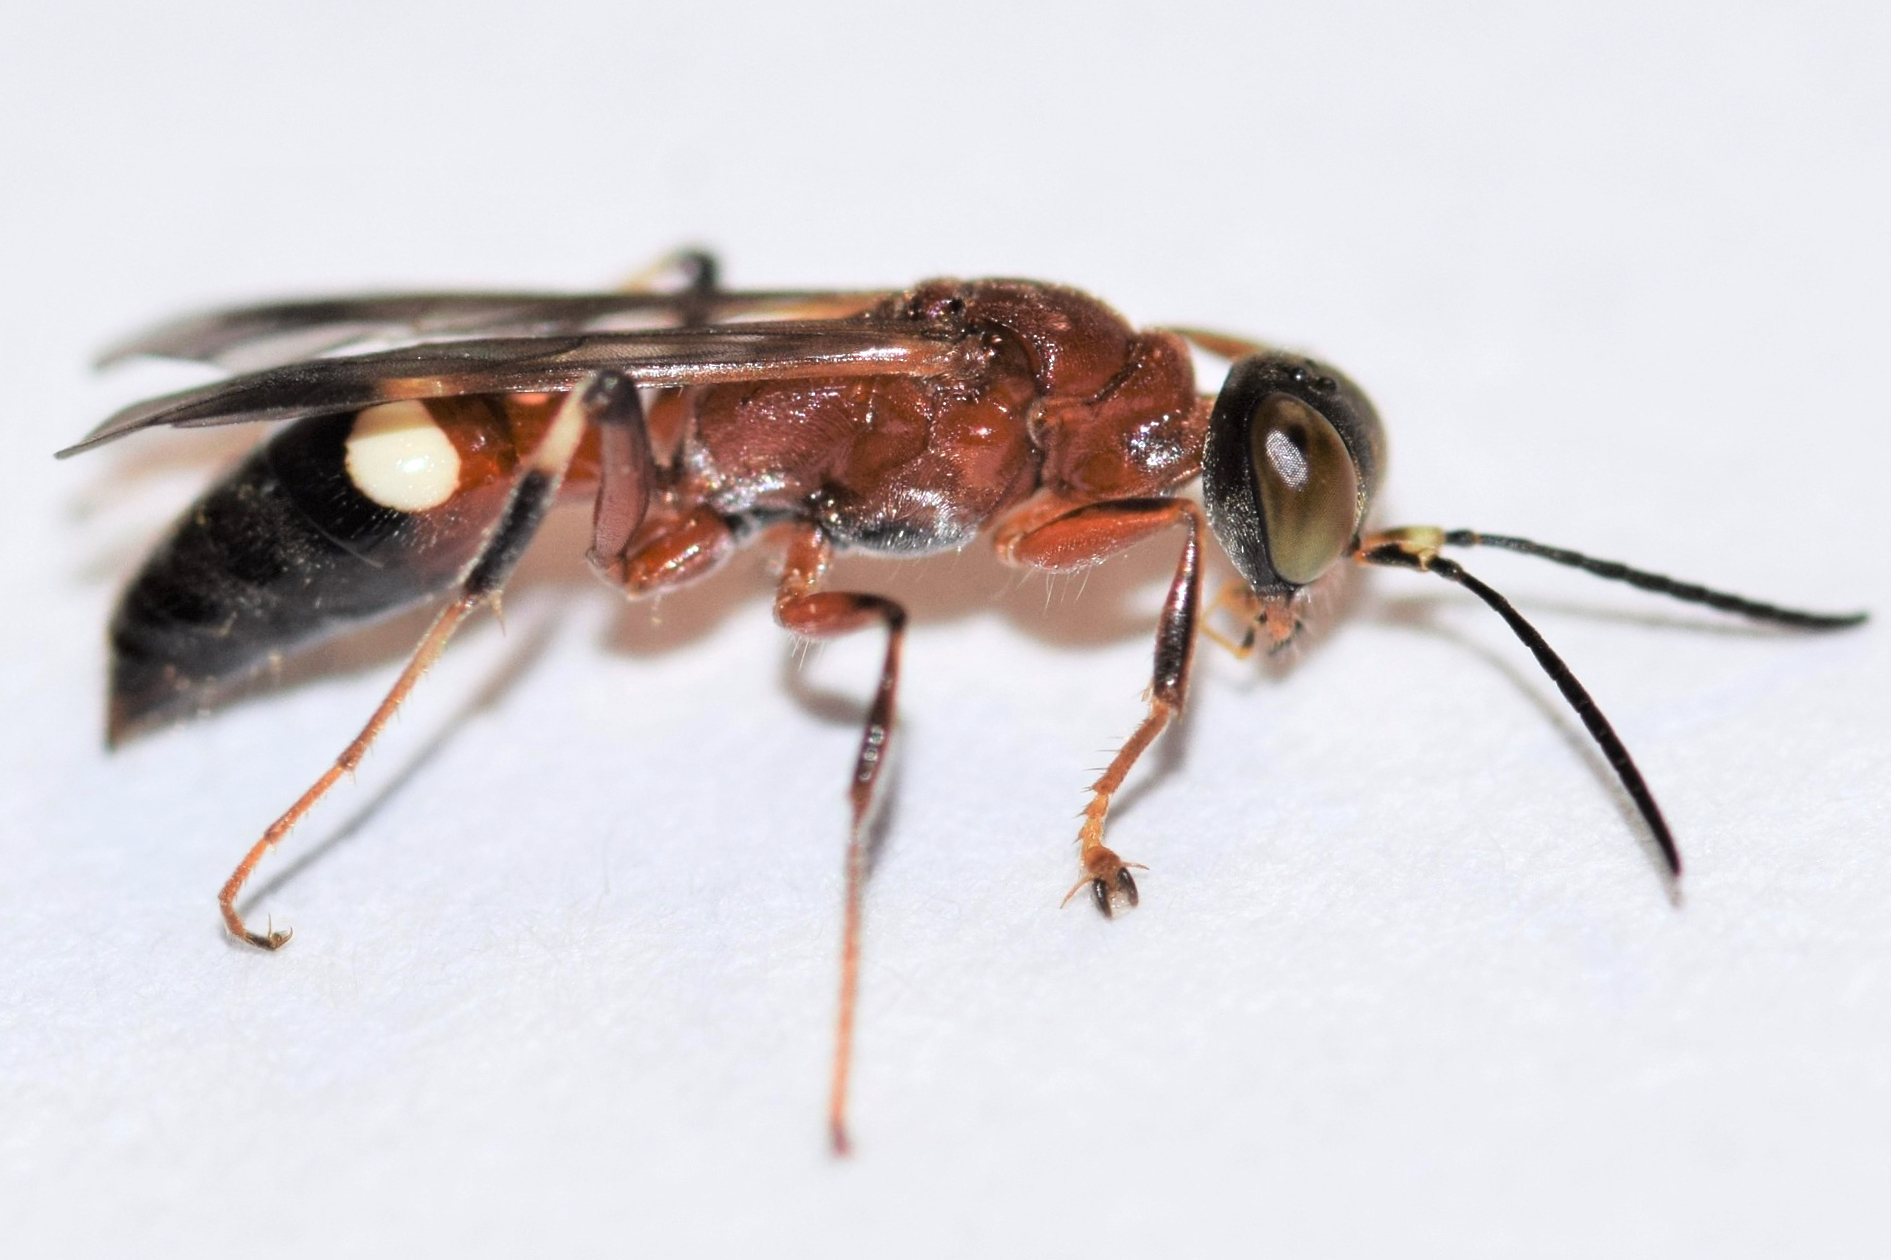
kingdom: Animalia
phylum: Arthropoda
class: Insecta
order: Hymenoptera
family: Crabronidae
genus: Alysson
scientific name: Alysson melleus
